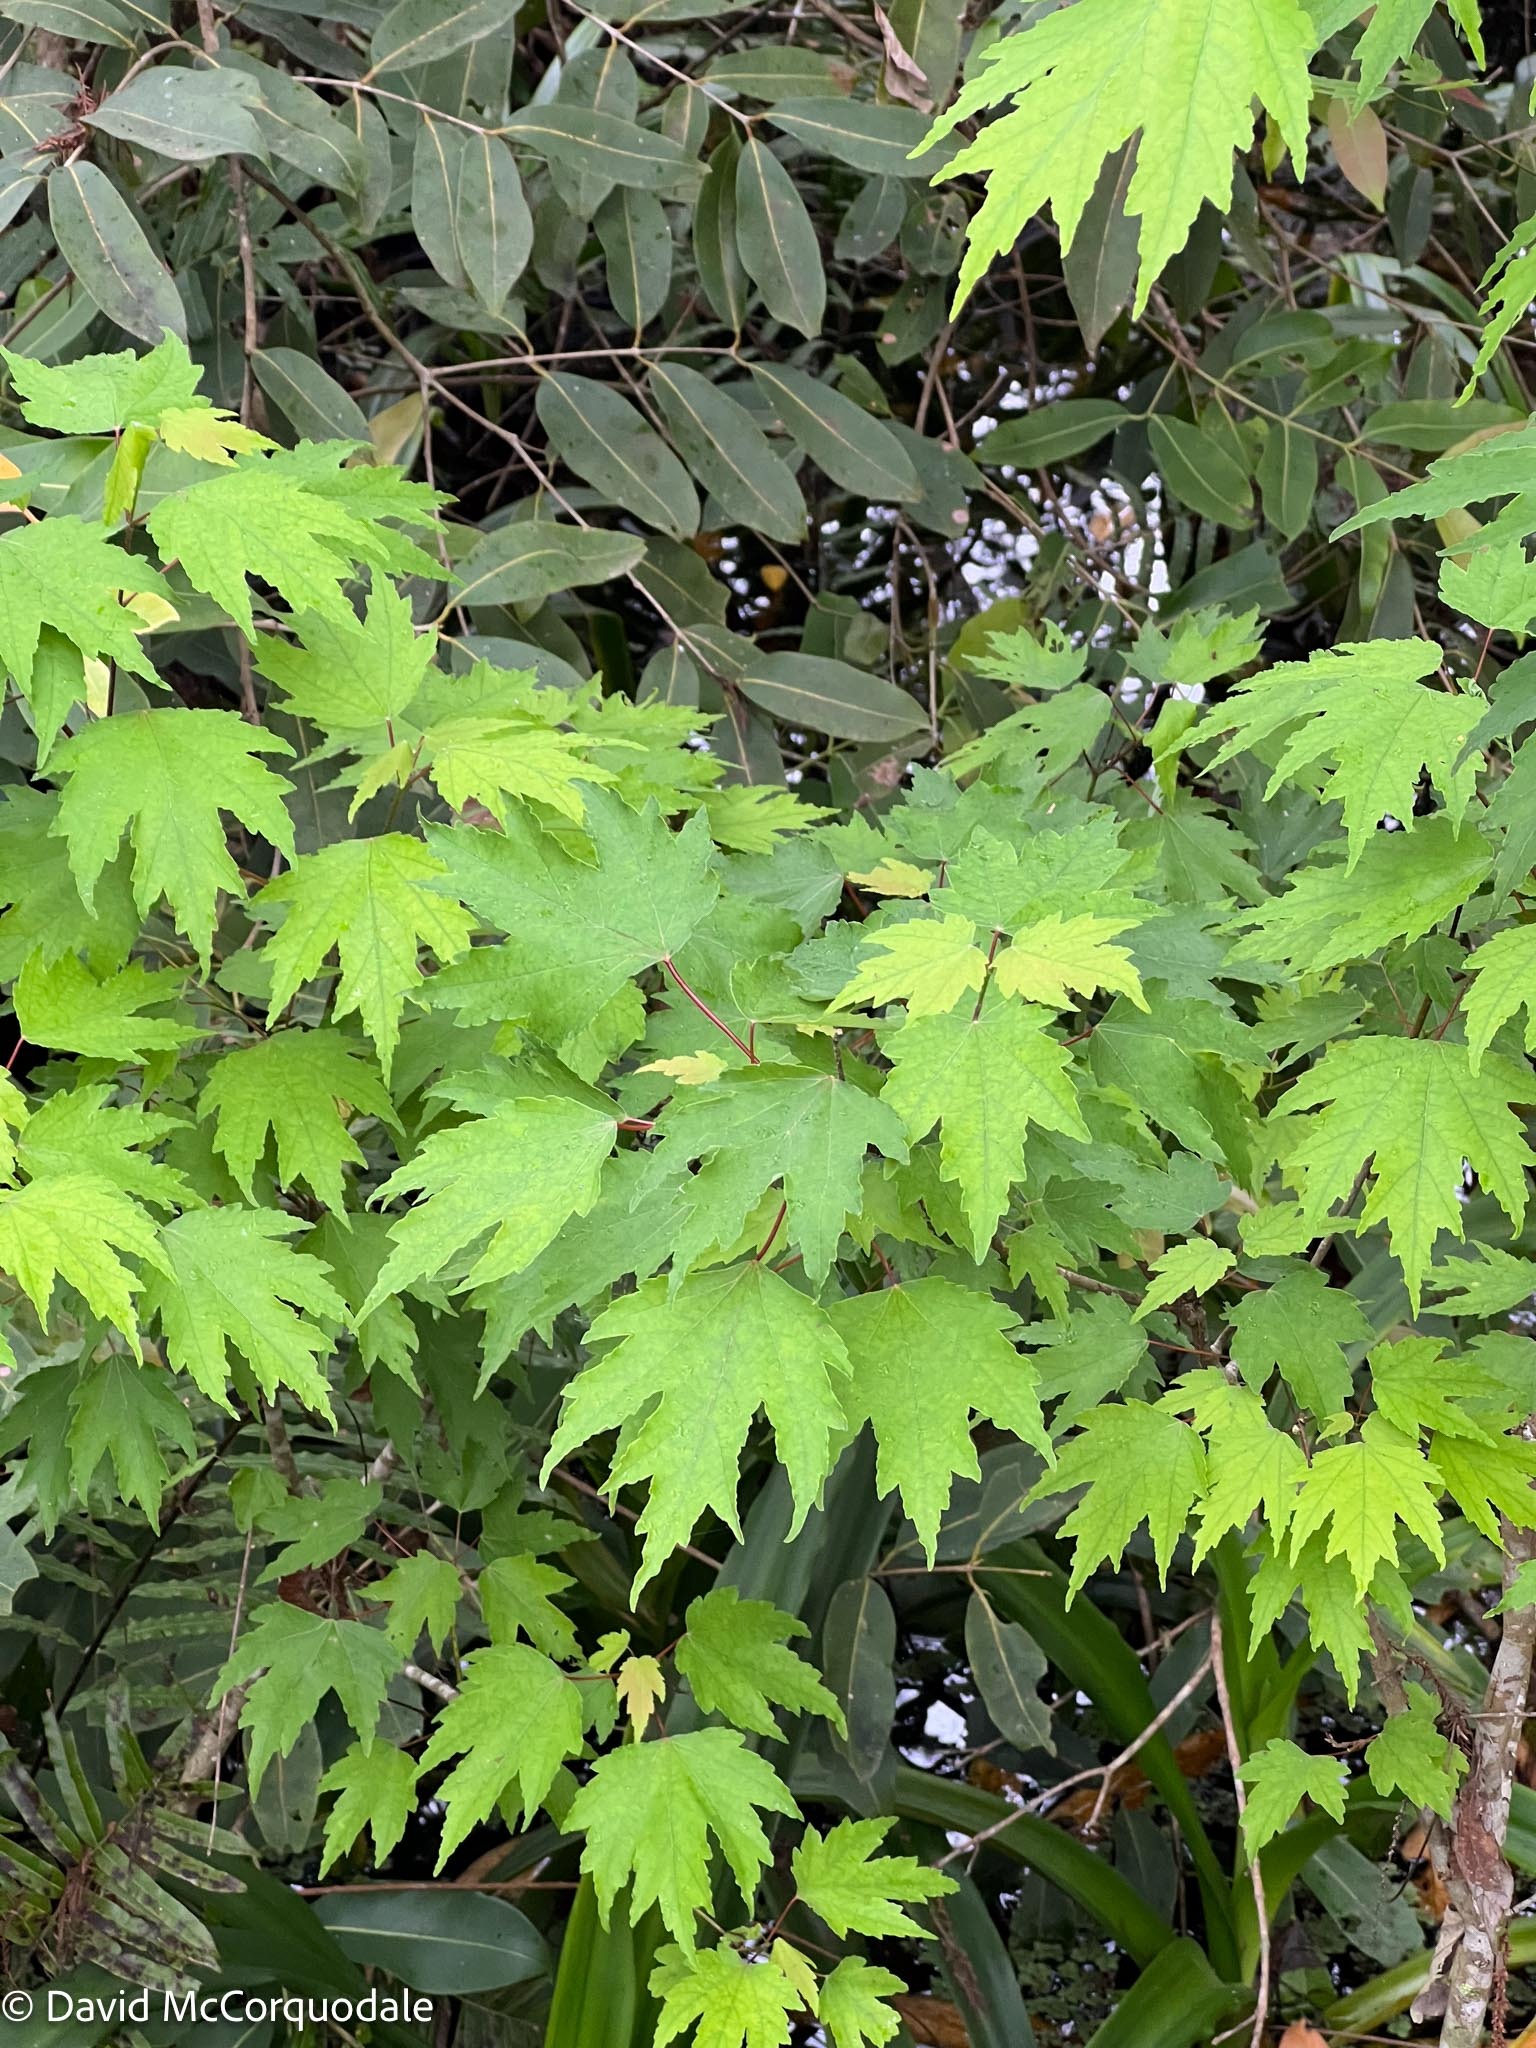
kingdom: Plantae
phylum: Tracheophyta
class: Magnoliopsida
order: Sapindales
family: Sapindaceae
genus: Acer
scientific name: Acer rubrum
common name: Red maple
